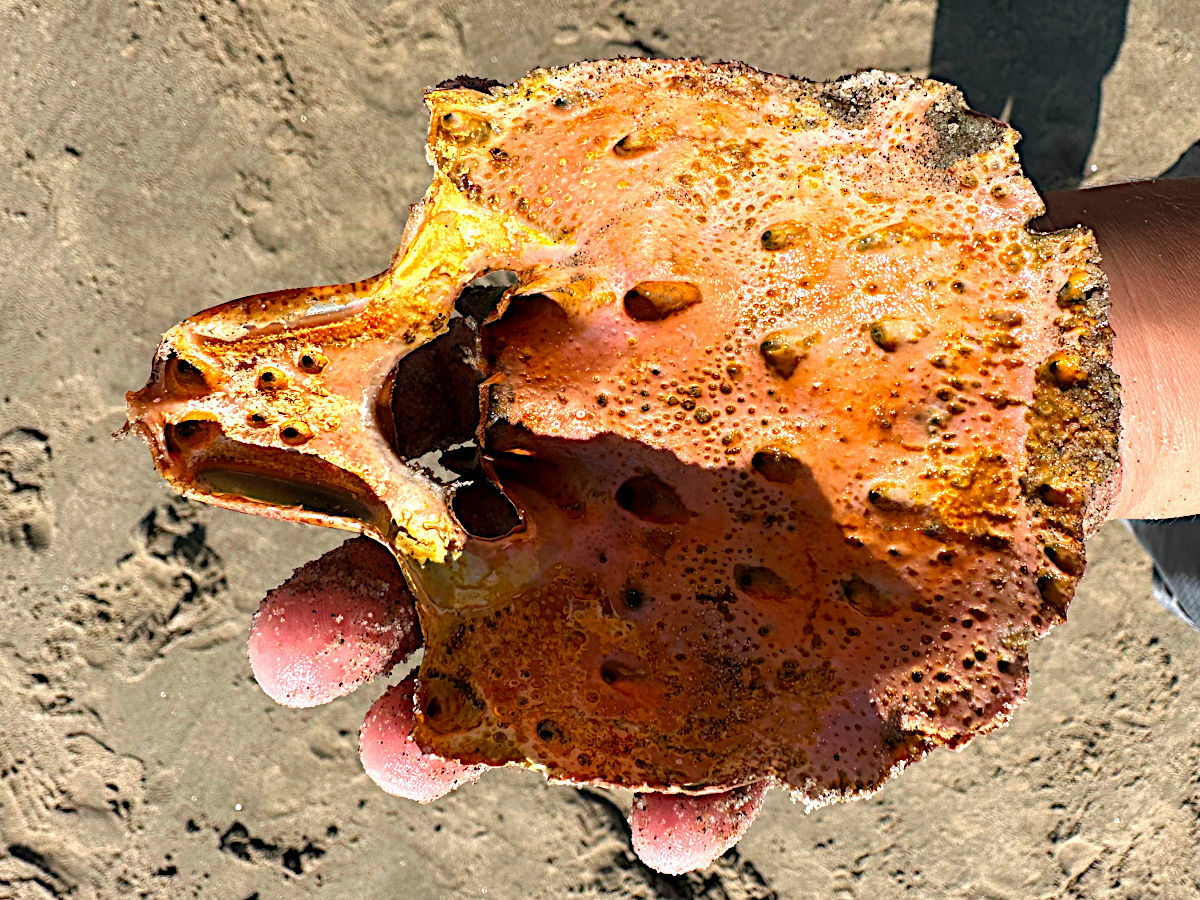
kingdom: Animalia
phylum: Arthropoda
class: Malacostraca
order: Decapoda
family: Palinuridae
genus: Panulirus
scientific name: Panulirus interruptus
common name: California spiny lobster
